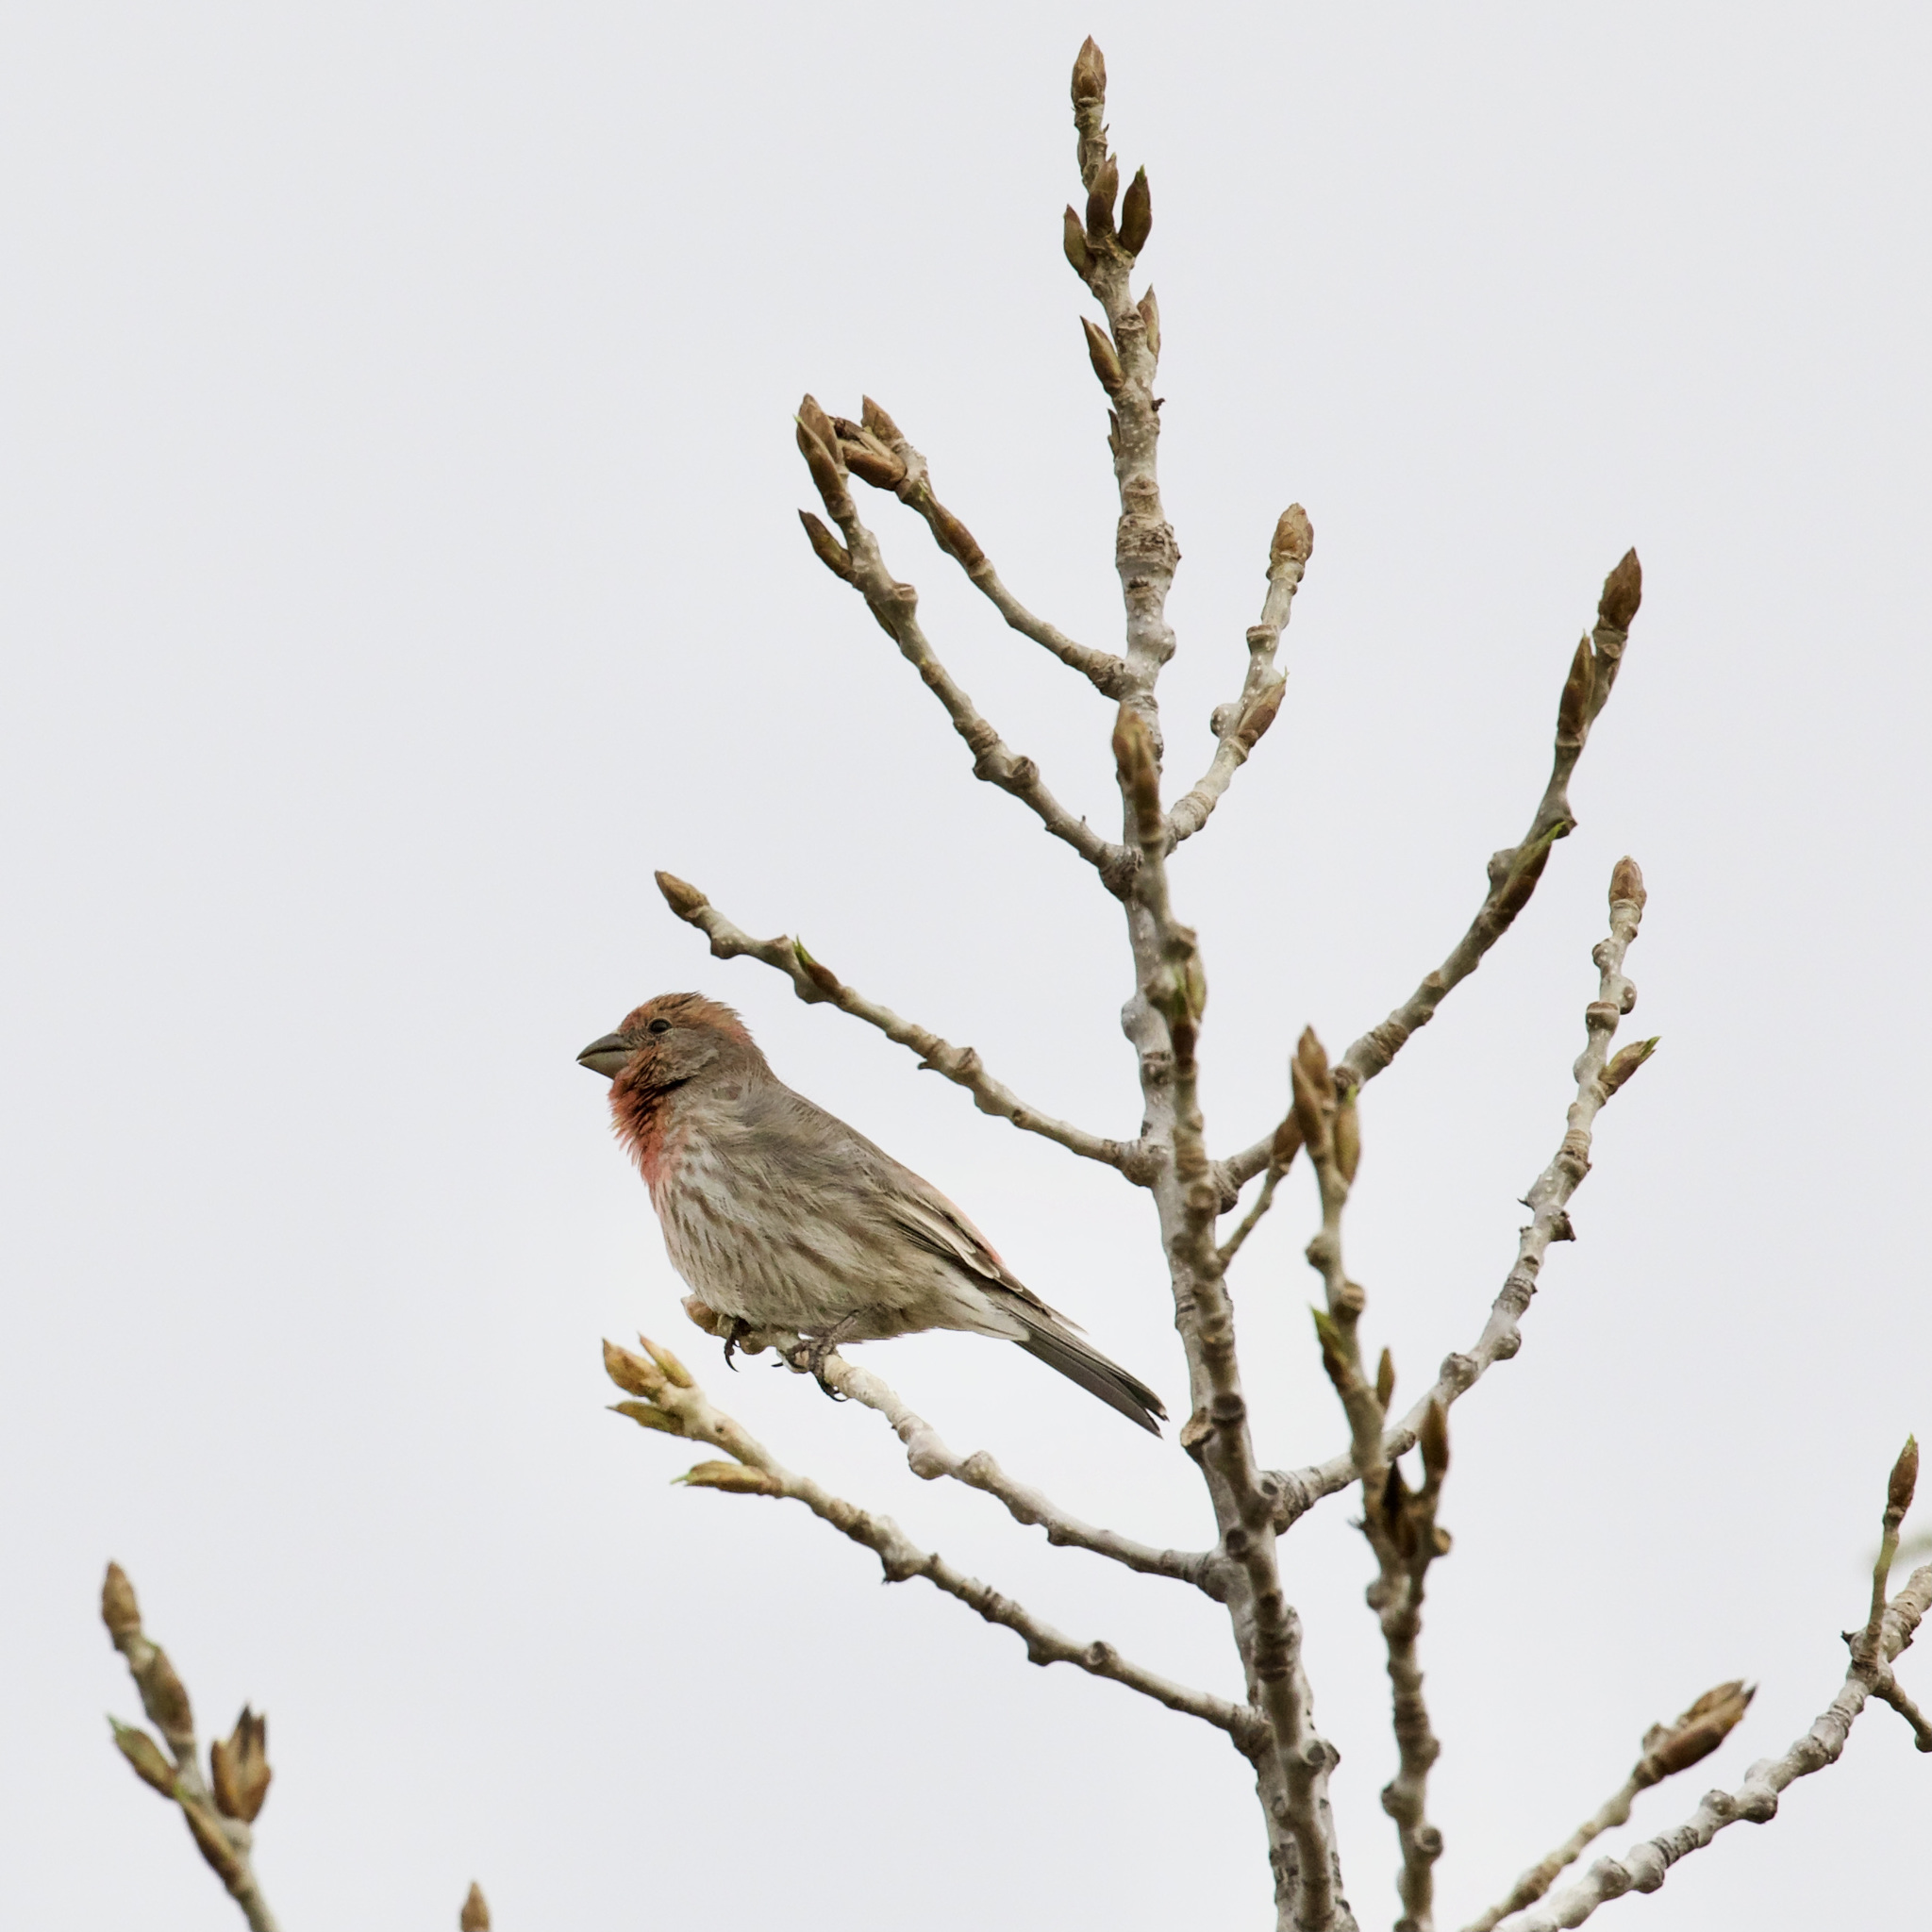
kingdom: Animalia
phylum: Chordata
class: Aves
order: Passeriformes
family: Fringillidae
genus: Haemorhous
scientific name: Haemorhous mexicanus
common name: House finch
